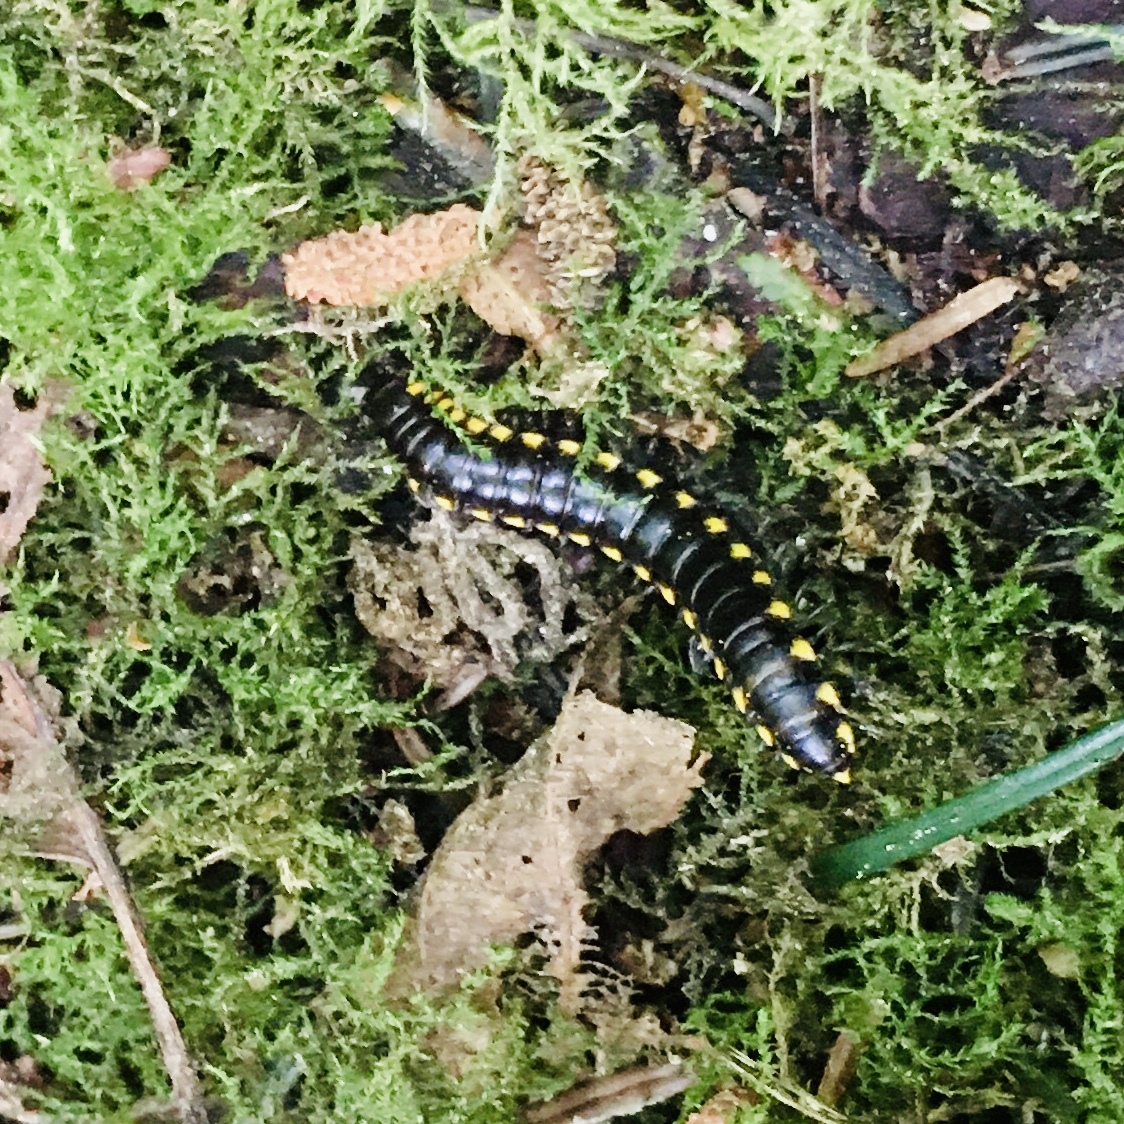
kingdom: Animalia
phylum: Arthropoda
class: Diplopoda
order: Polydesmida
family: Xystodesmidae
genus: Harpaphe
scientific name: Harpaphe haydeniana
